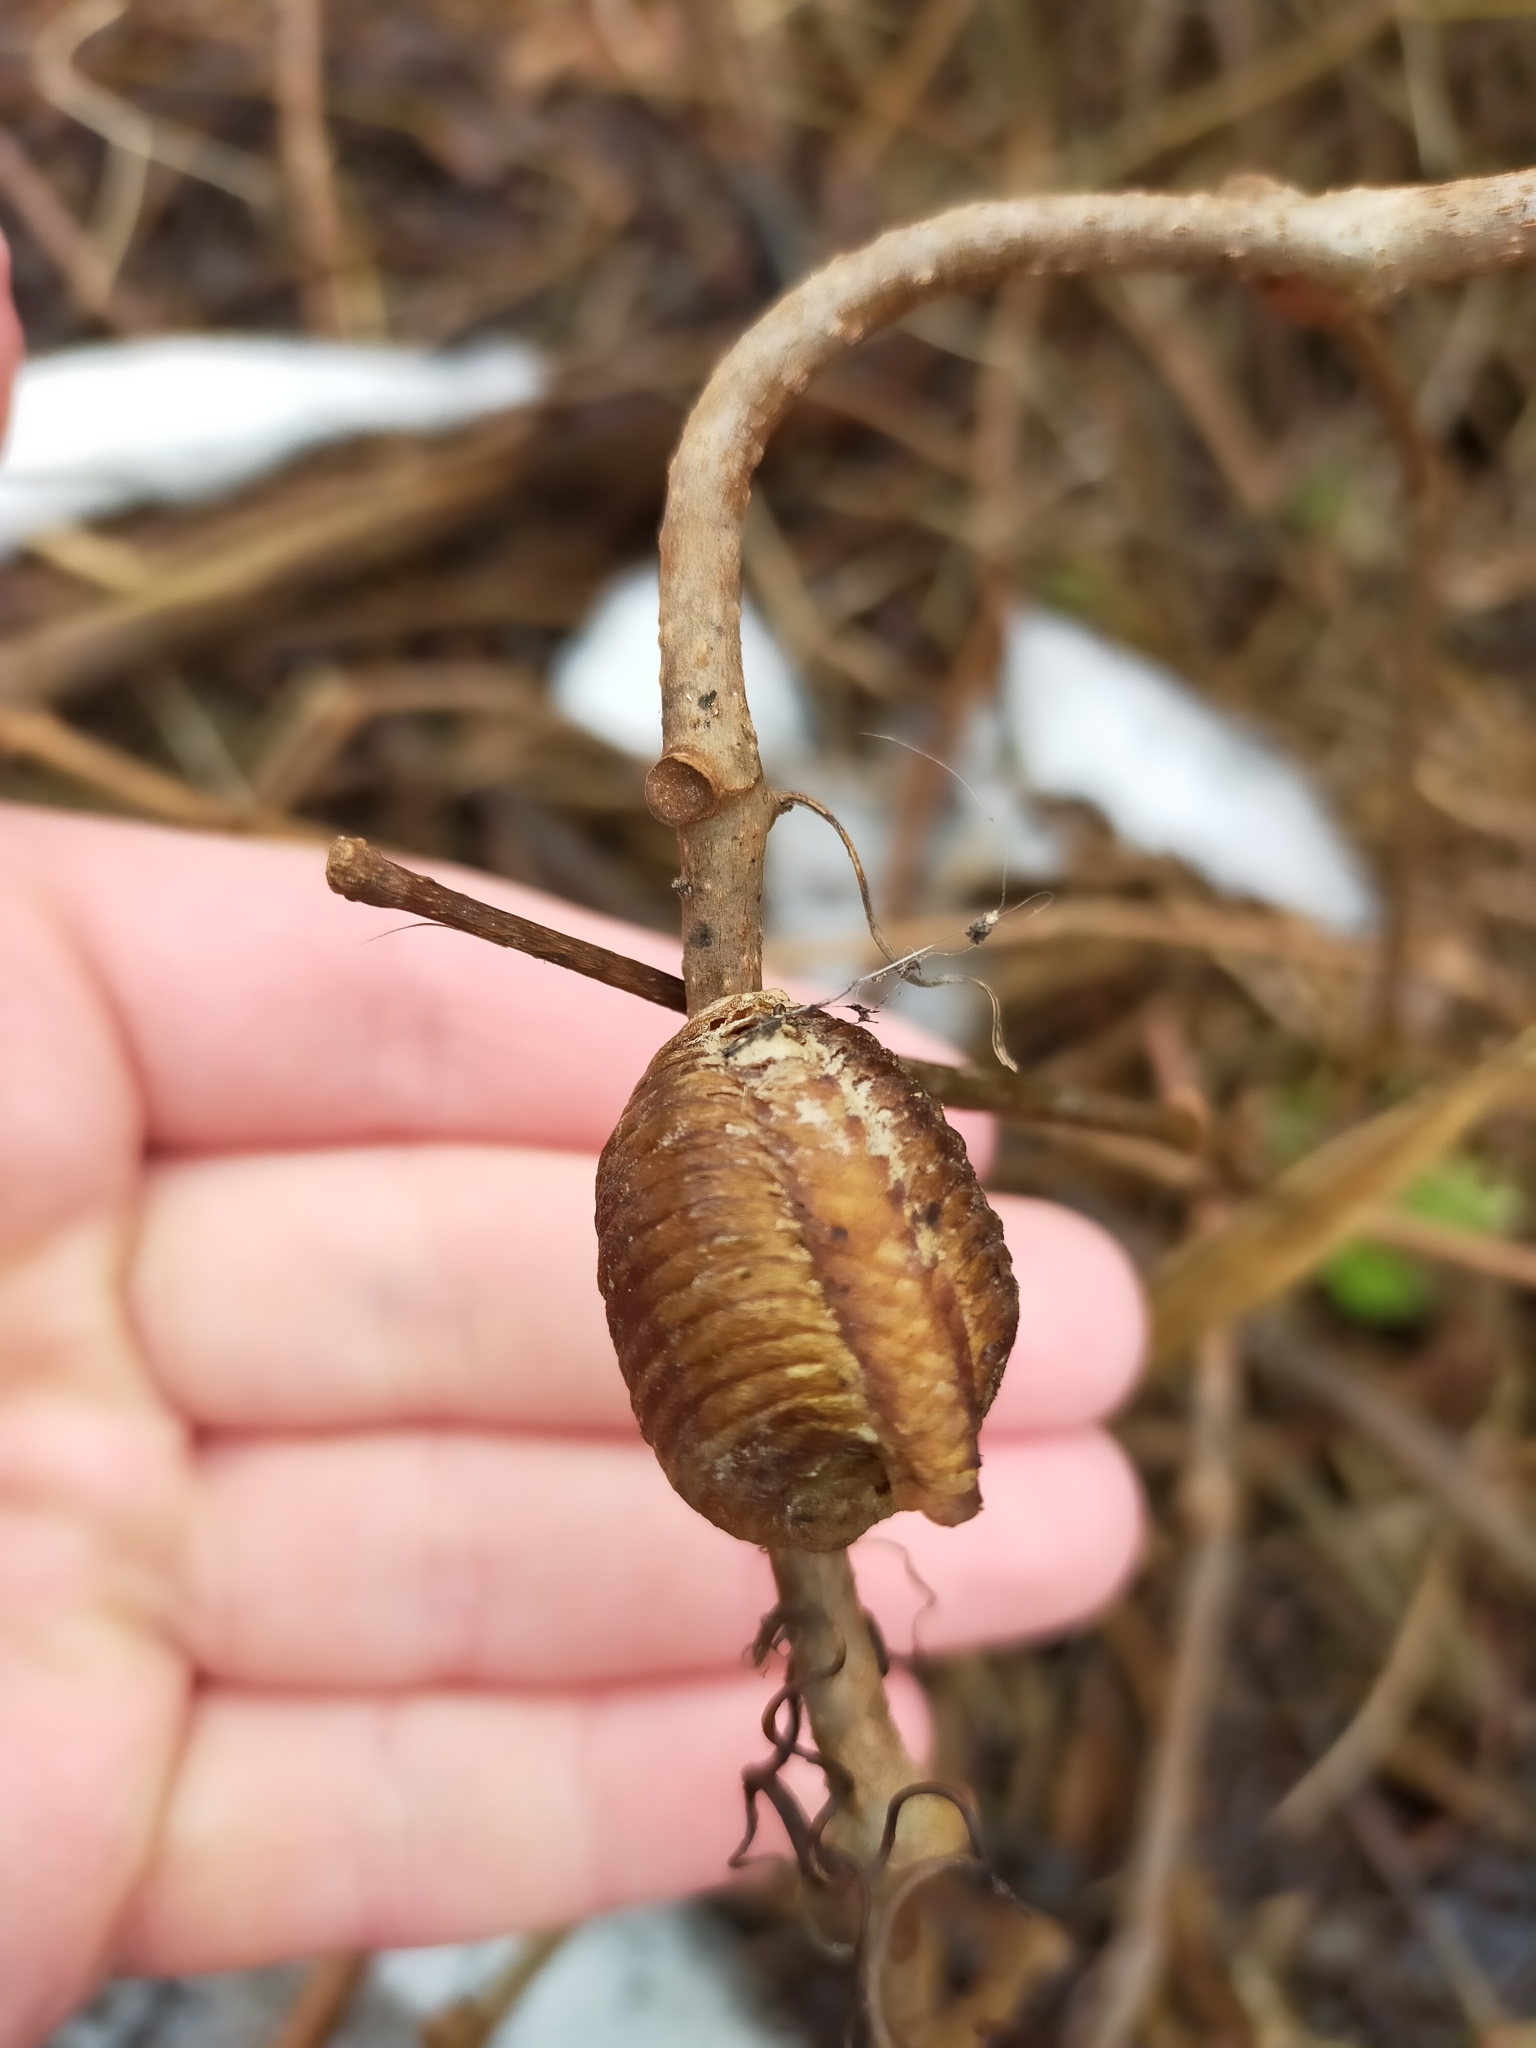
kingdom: Animalia
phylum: Arthropoda
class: Insecta
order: Mantodea
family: Mantidae
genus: Hierodula
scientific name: Hierodula transcaucasica
